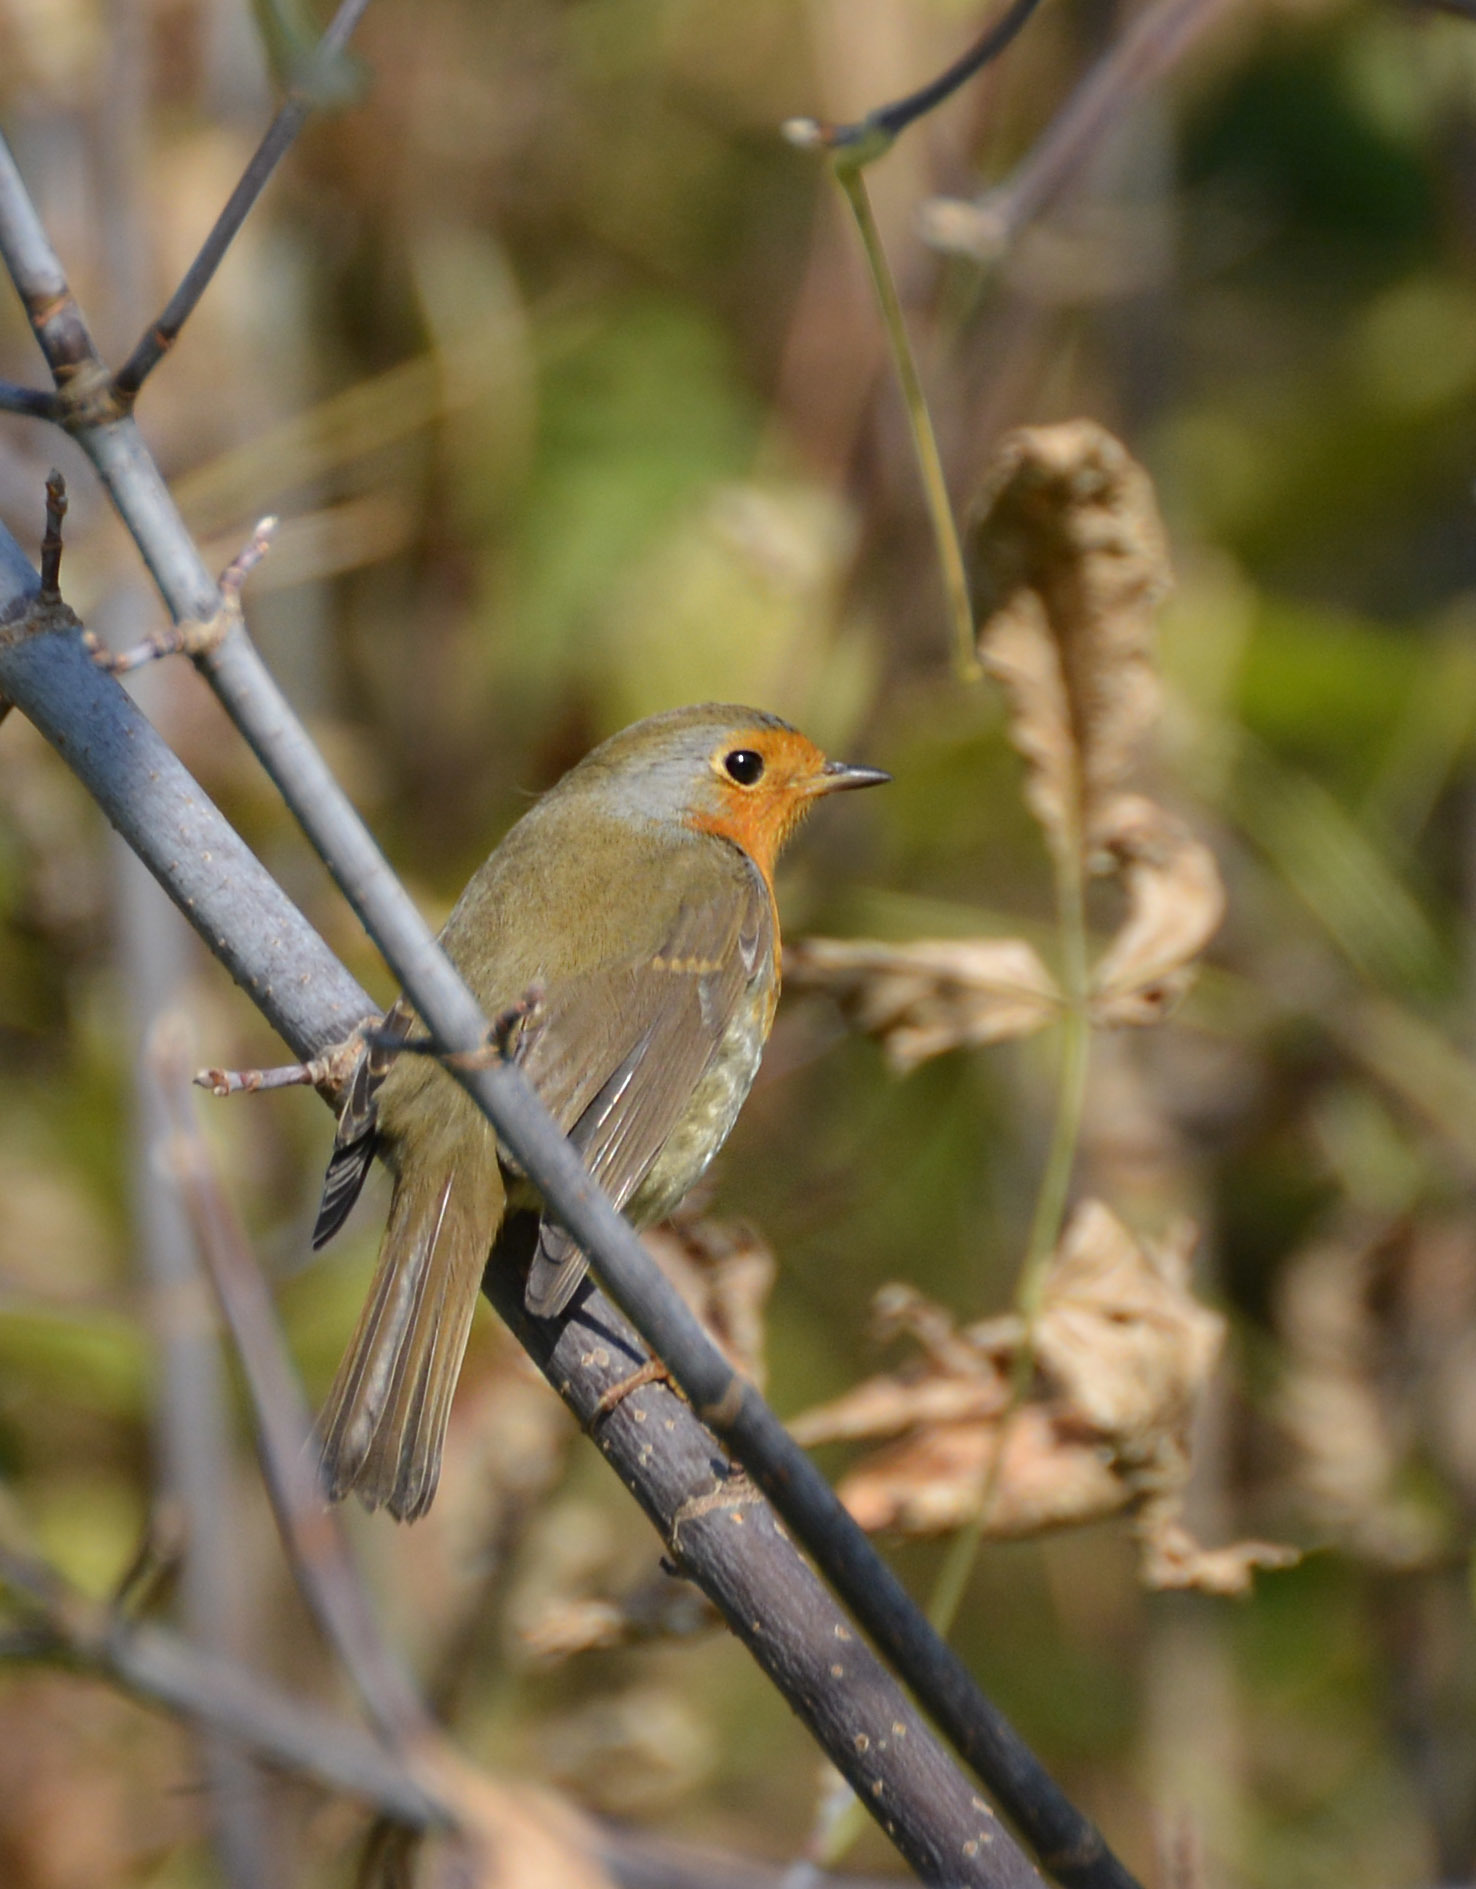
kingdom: Animalia
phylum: Chordata
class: Aves
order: Passeriformes
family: Muscicapidae
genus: Erithacus
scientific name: Erithacus rubecula
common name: European robin
